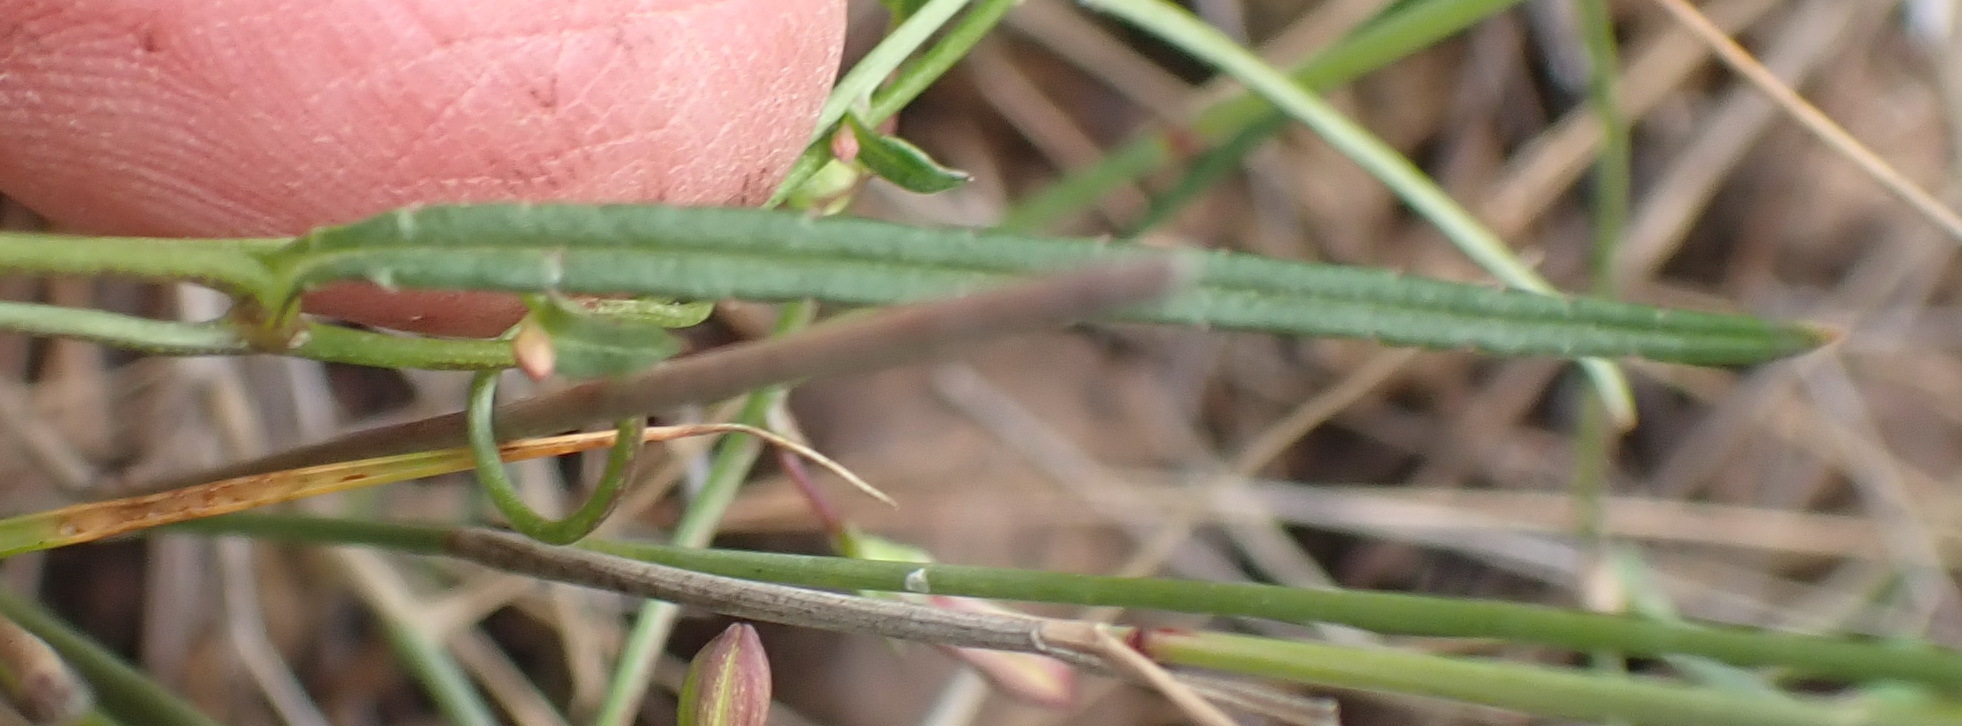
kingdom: Plantae
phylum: Tracheophyta
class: Magnoliopsida
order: Asterales
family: Campanulaceae
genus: Cyphia
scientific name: Cyphia sylvatica
